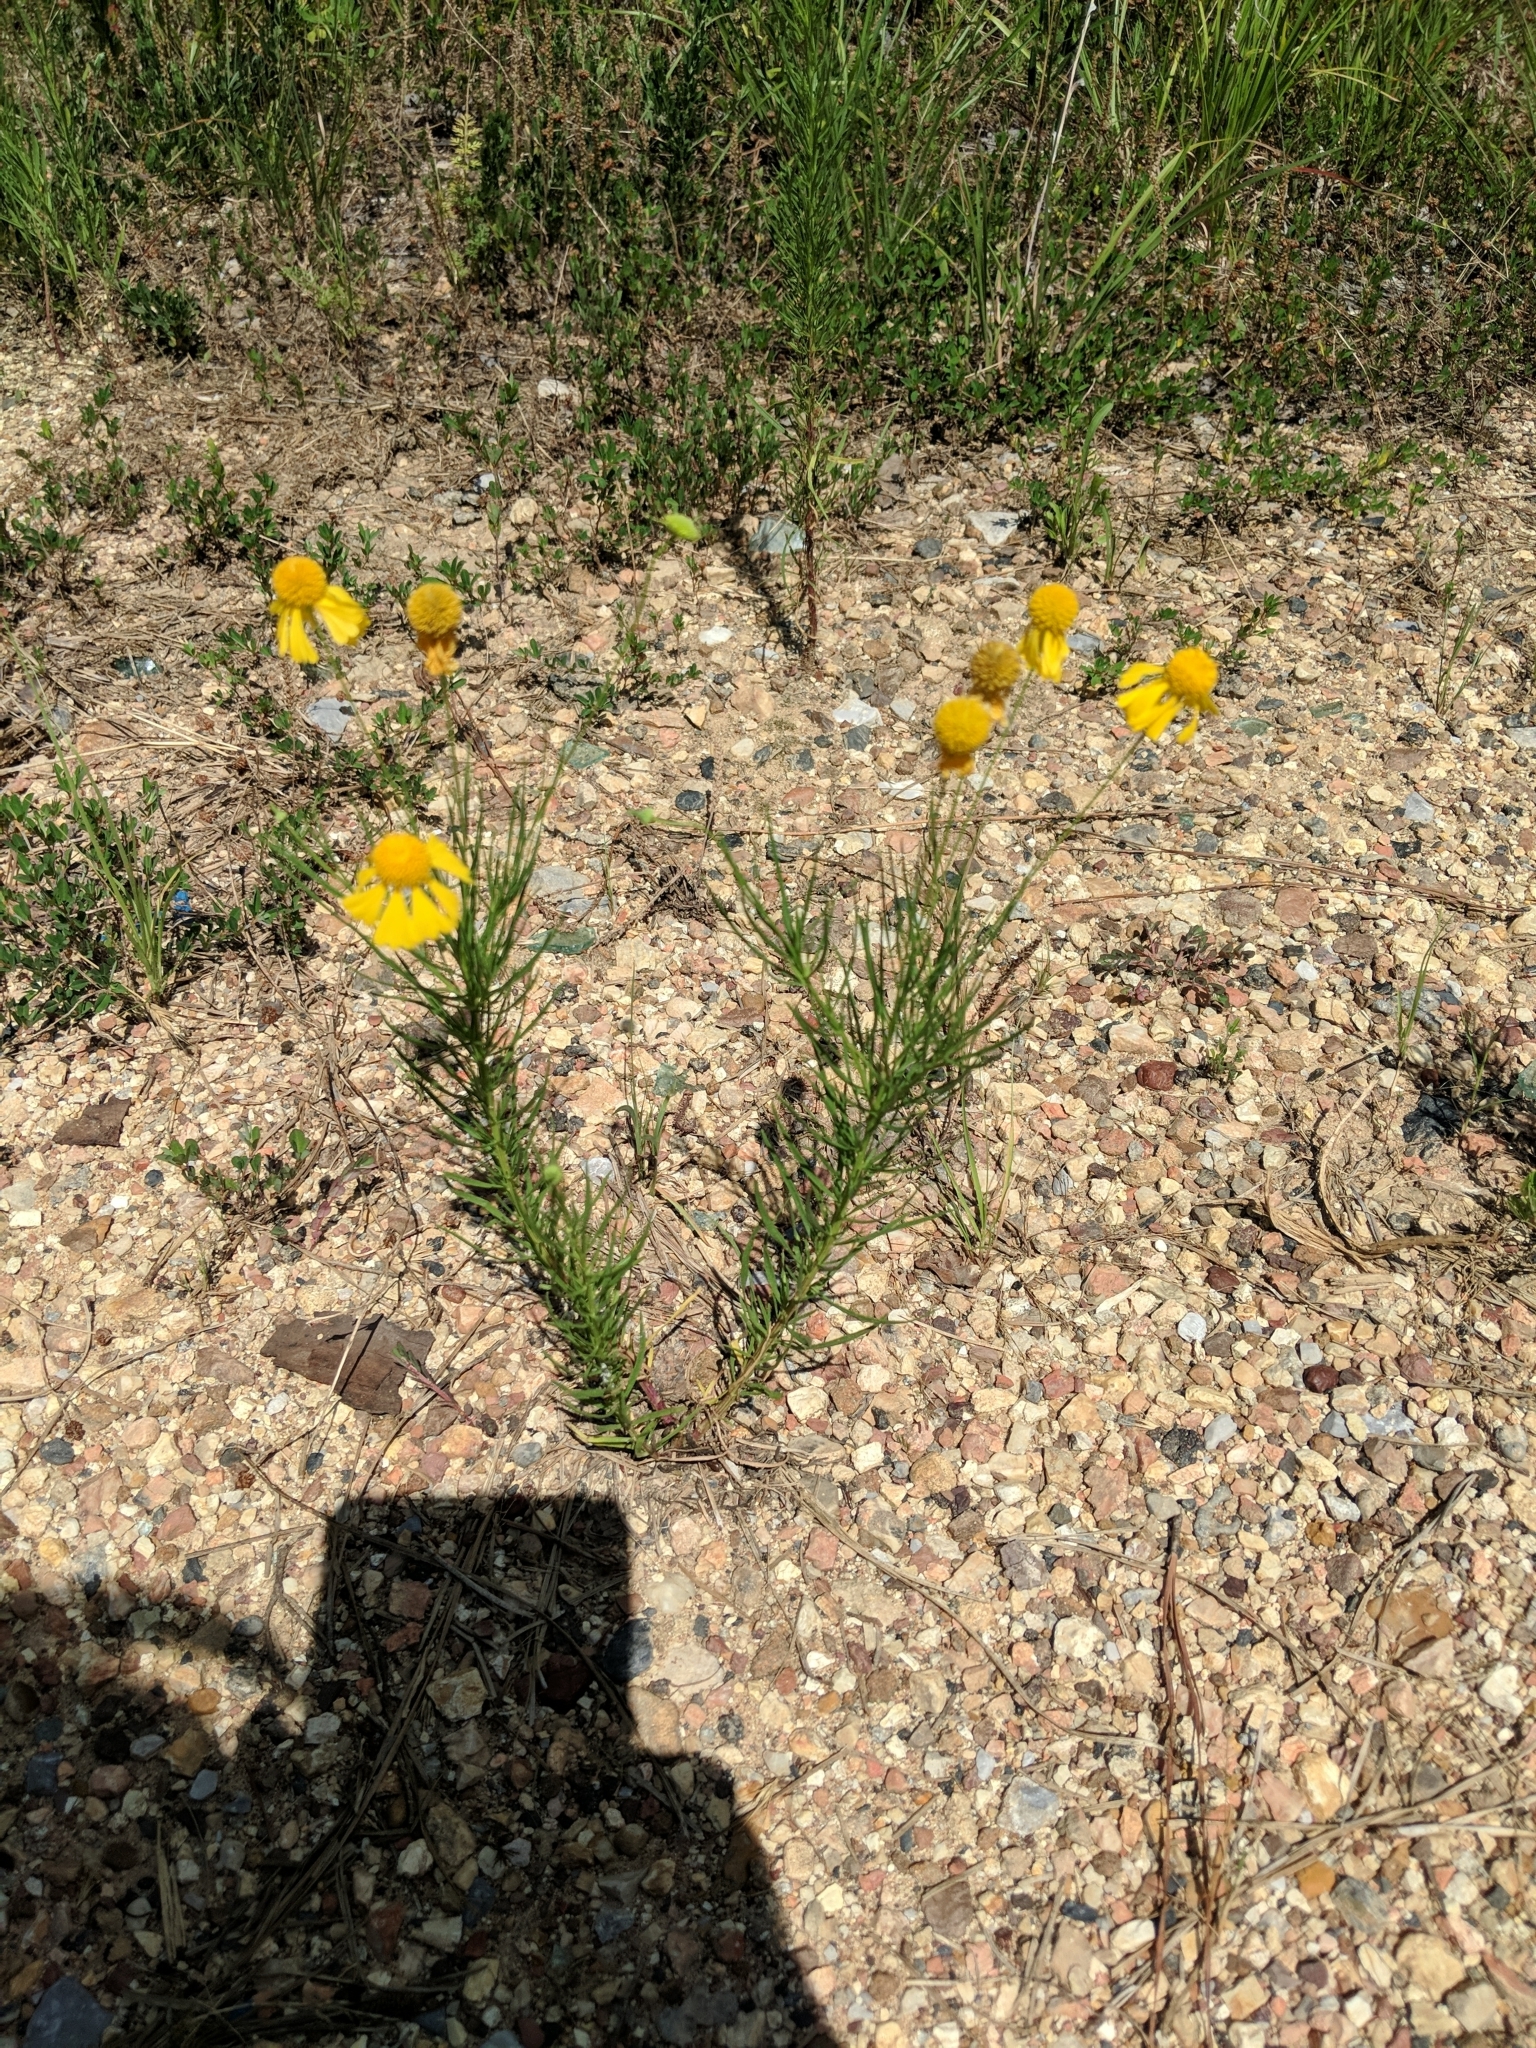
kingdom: Plantae
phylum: Tracheophyta
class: Magnoliopsida
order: Asterales
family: Asteraceae
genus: Helenium
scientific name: Helenium amarum
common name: Bitter sneezeweed
